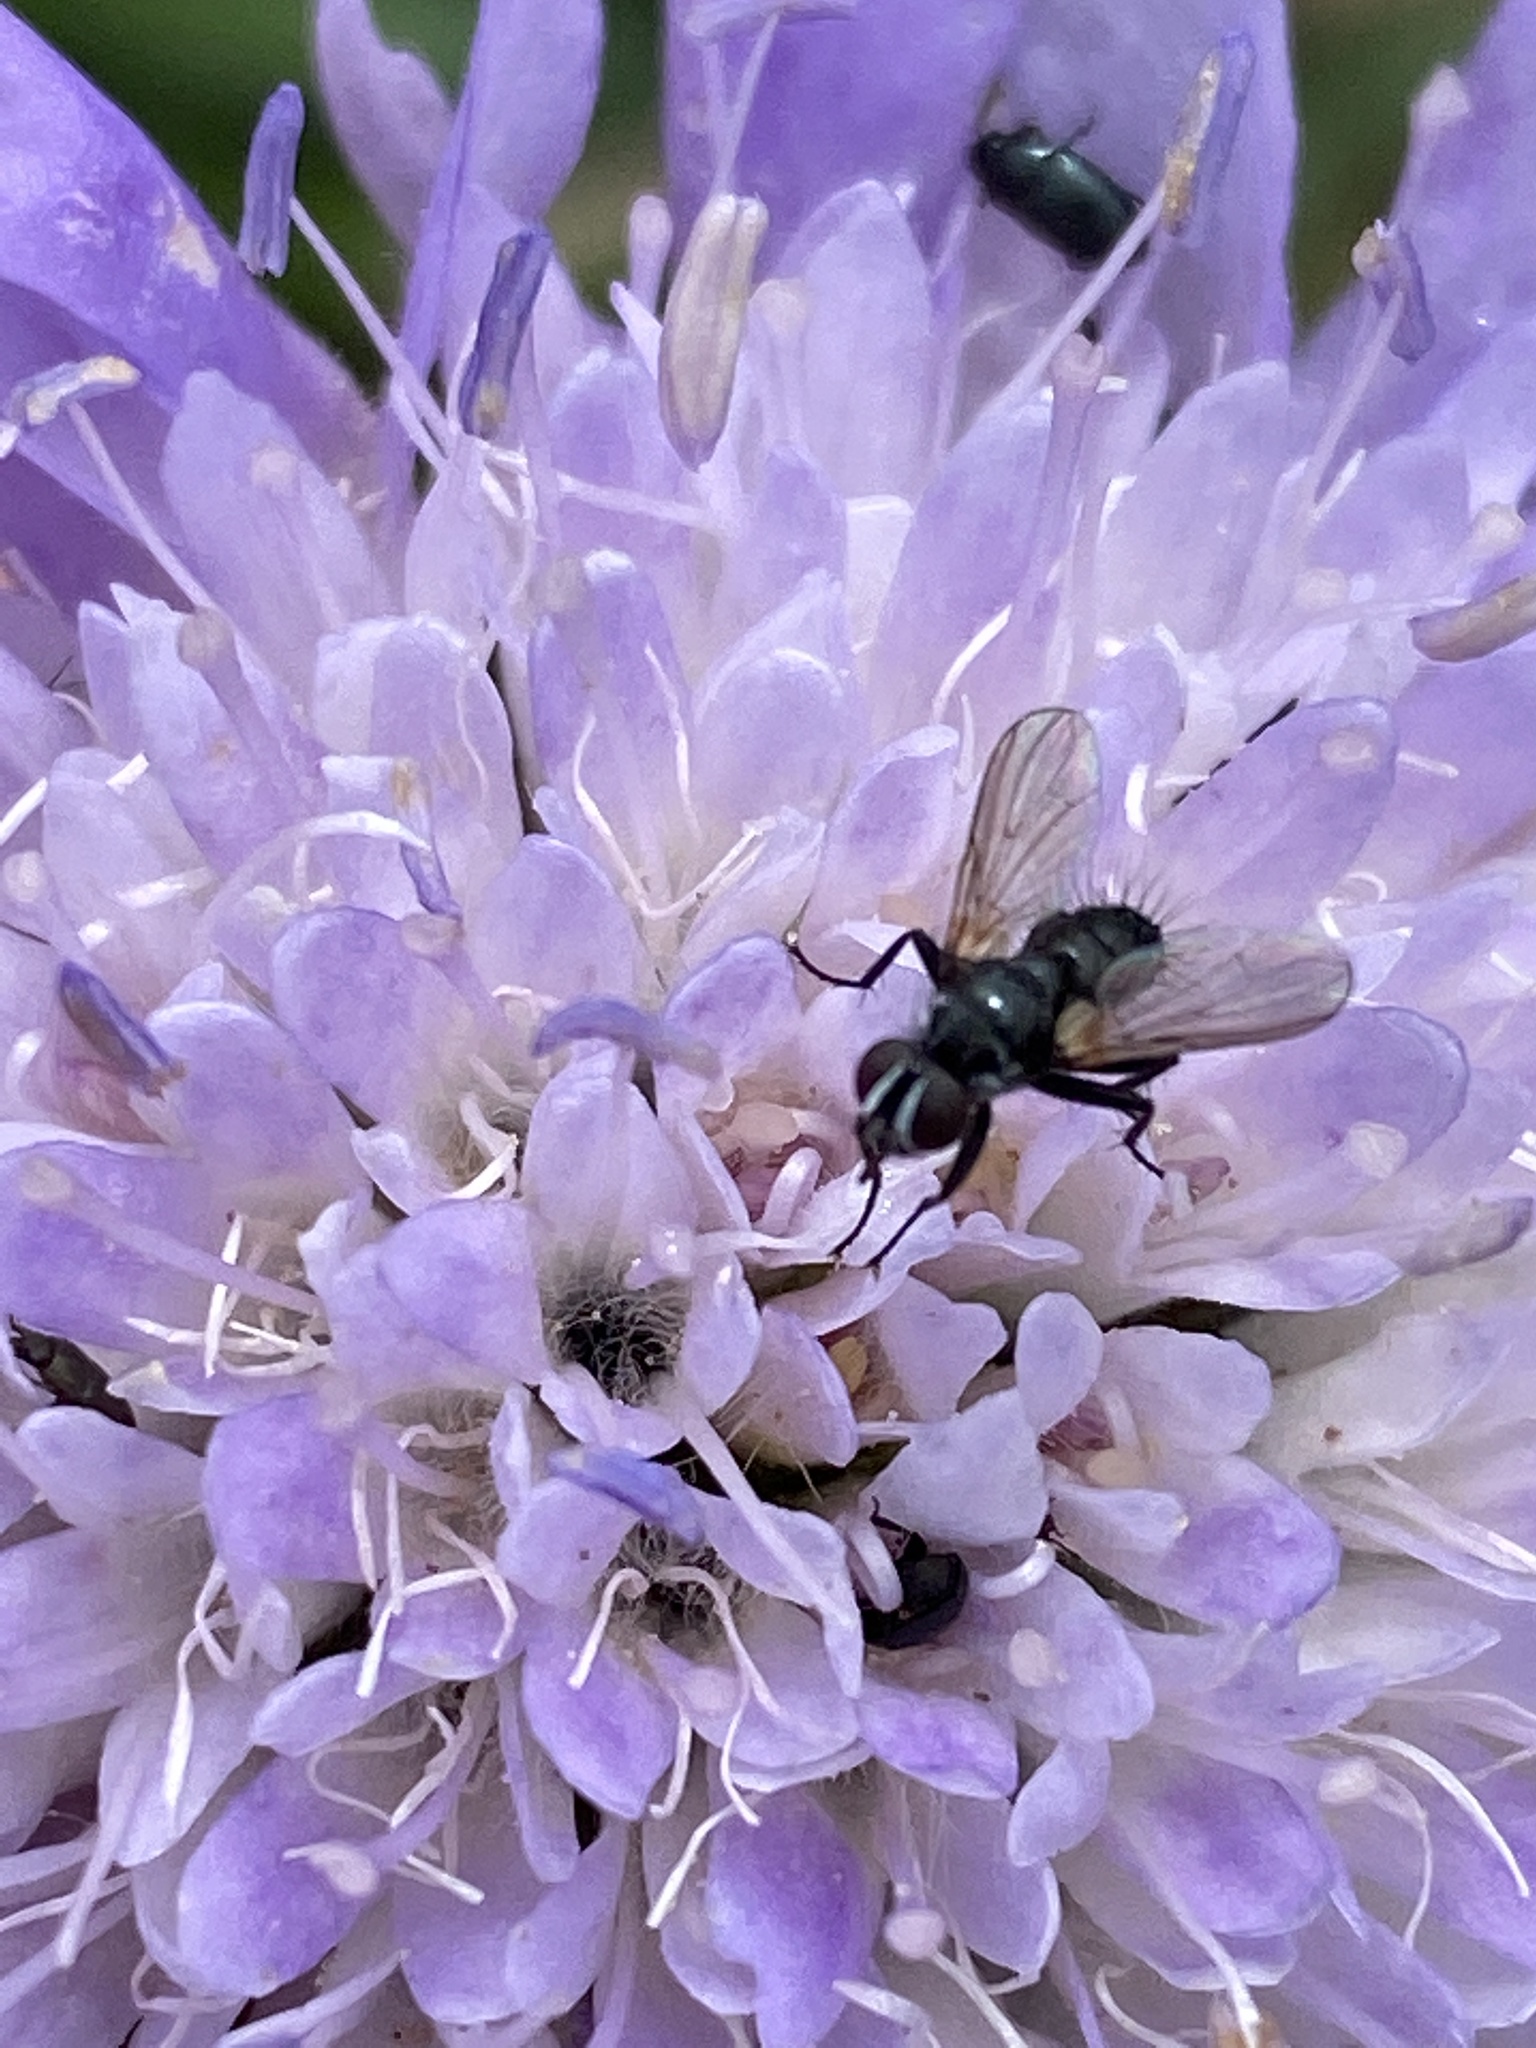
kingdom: Animalia
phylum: Arthropoda
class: Insecta
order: Diptera
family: Tachinidae
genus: Phania
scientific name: Phania funesta
